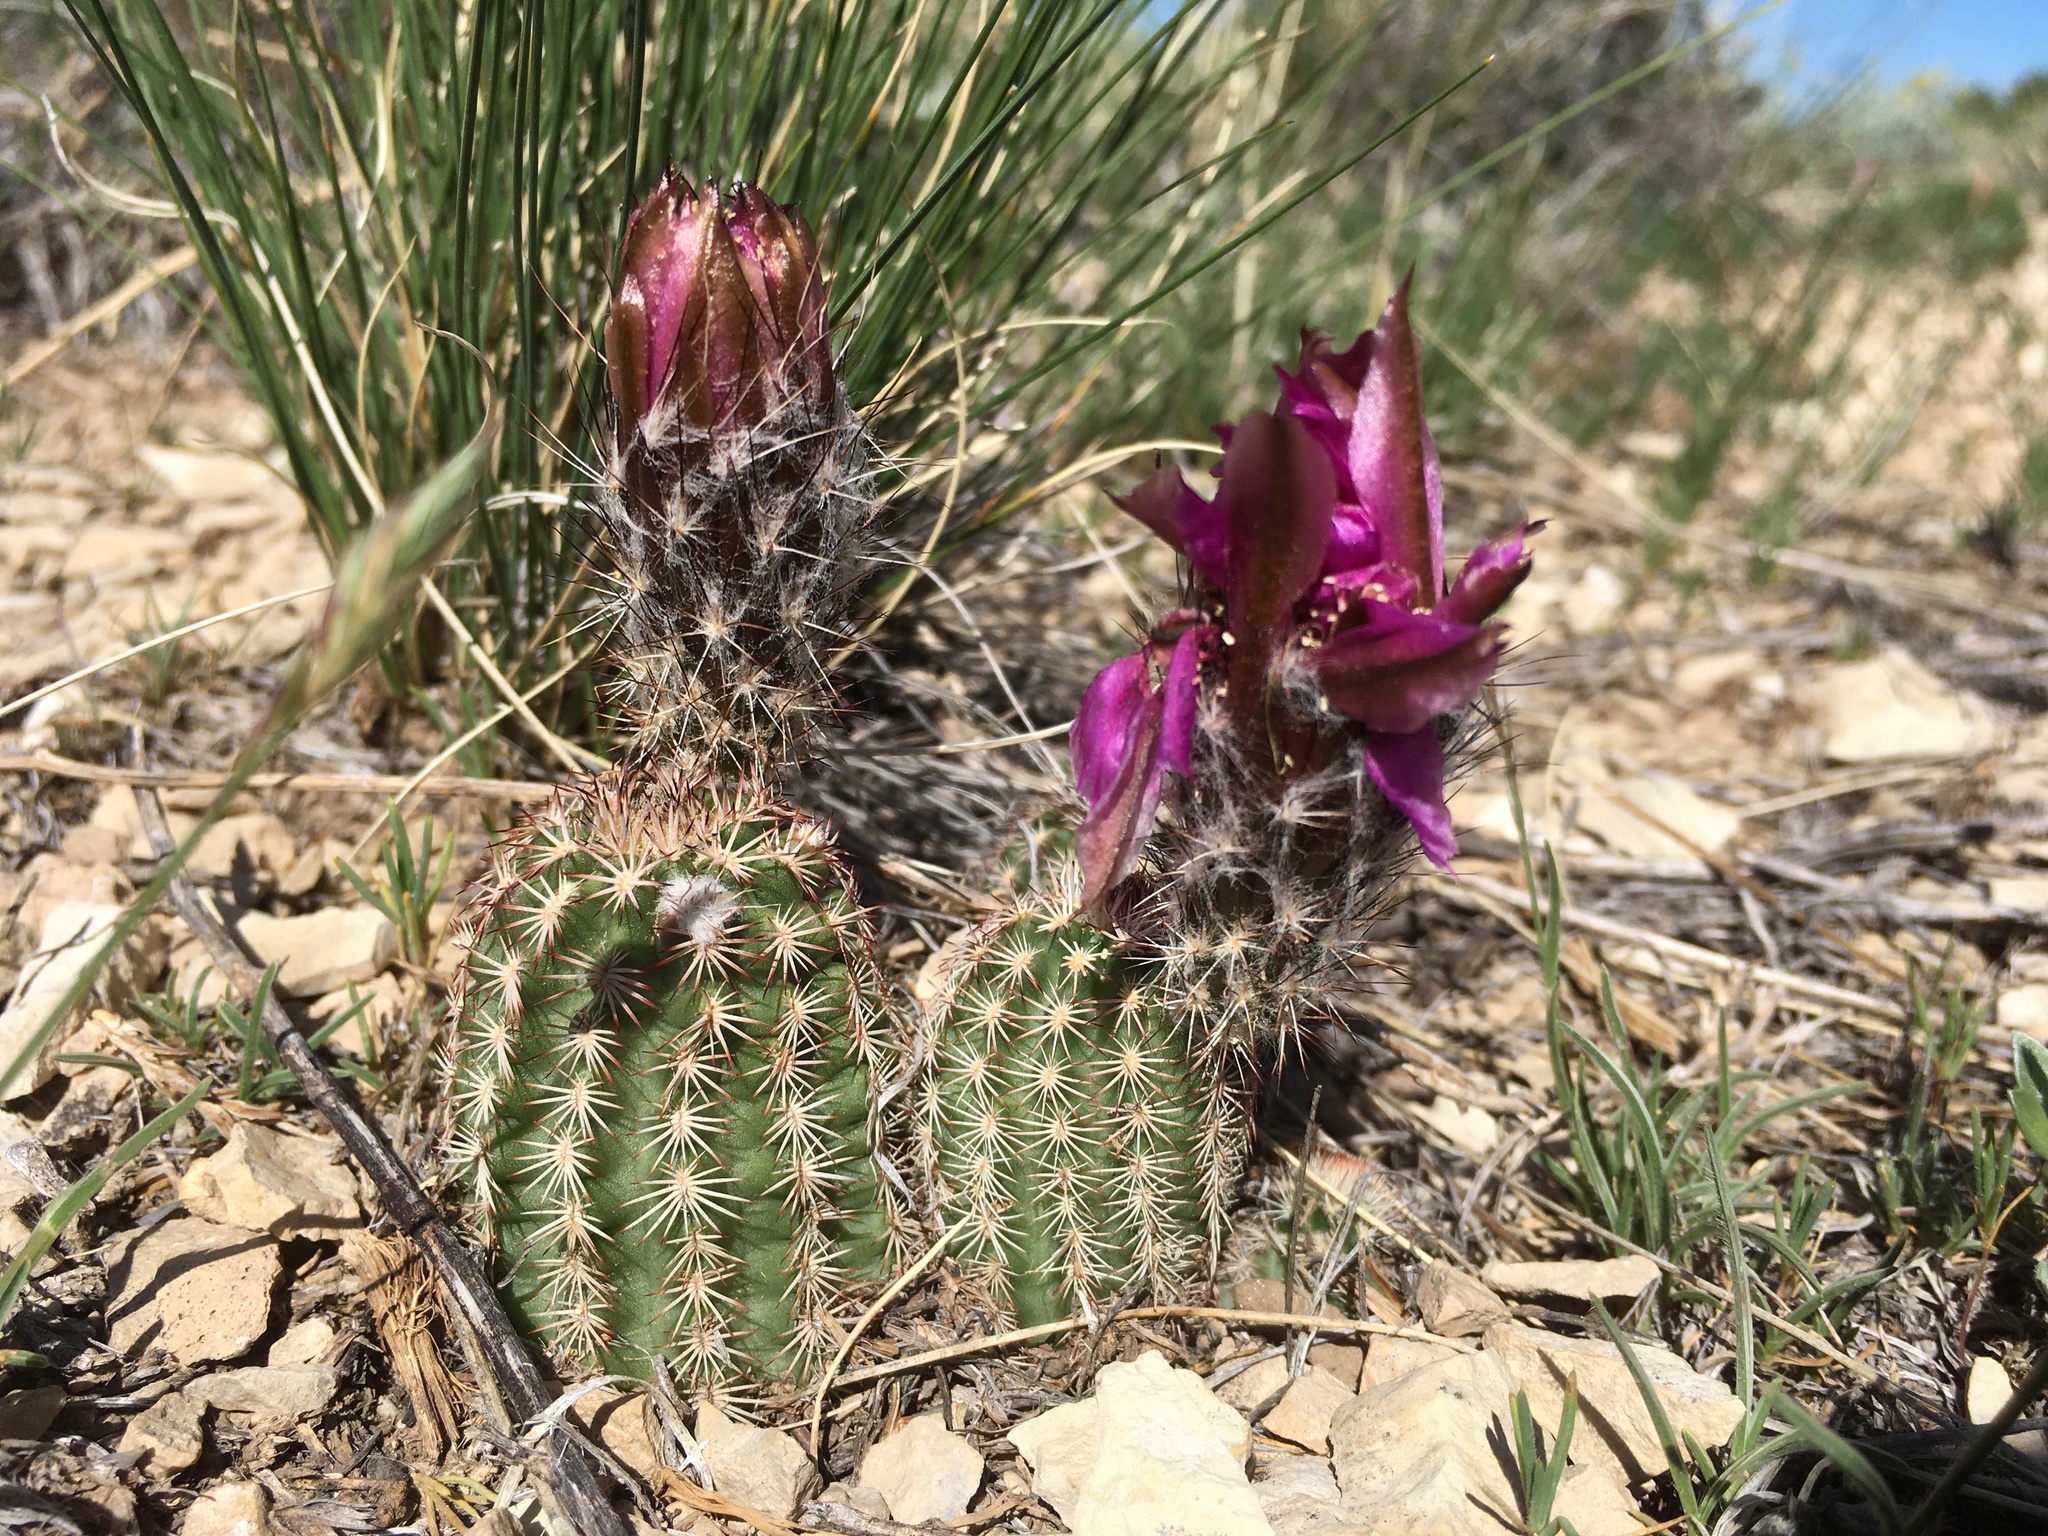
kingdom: Plantae
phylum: Tracheophyta
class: Magnoliopsida
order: Caryophyllales
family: Cactaceae
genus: Echinocereus
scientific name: Echinocereus reichenbachii
